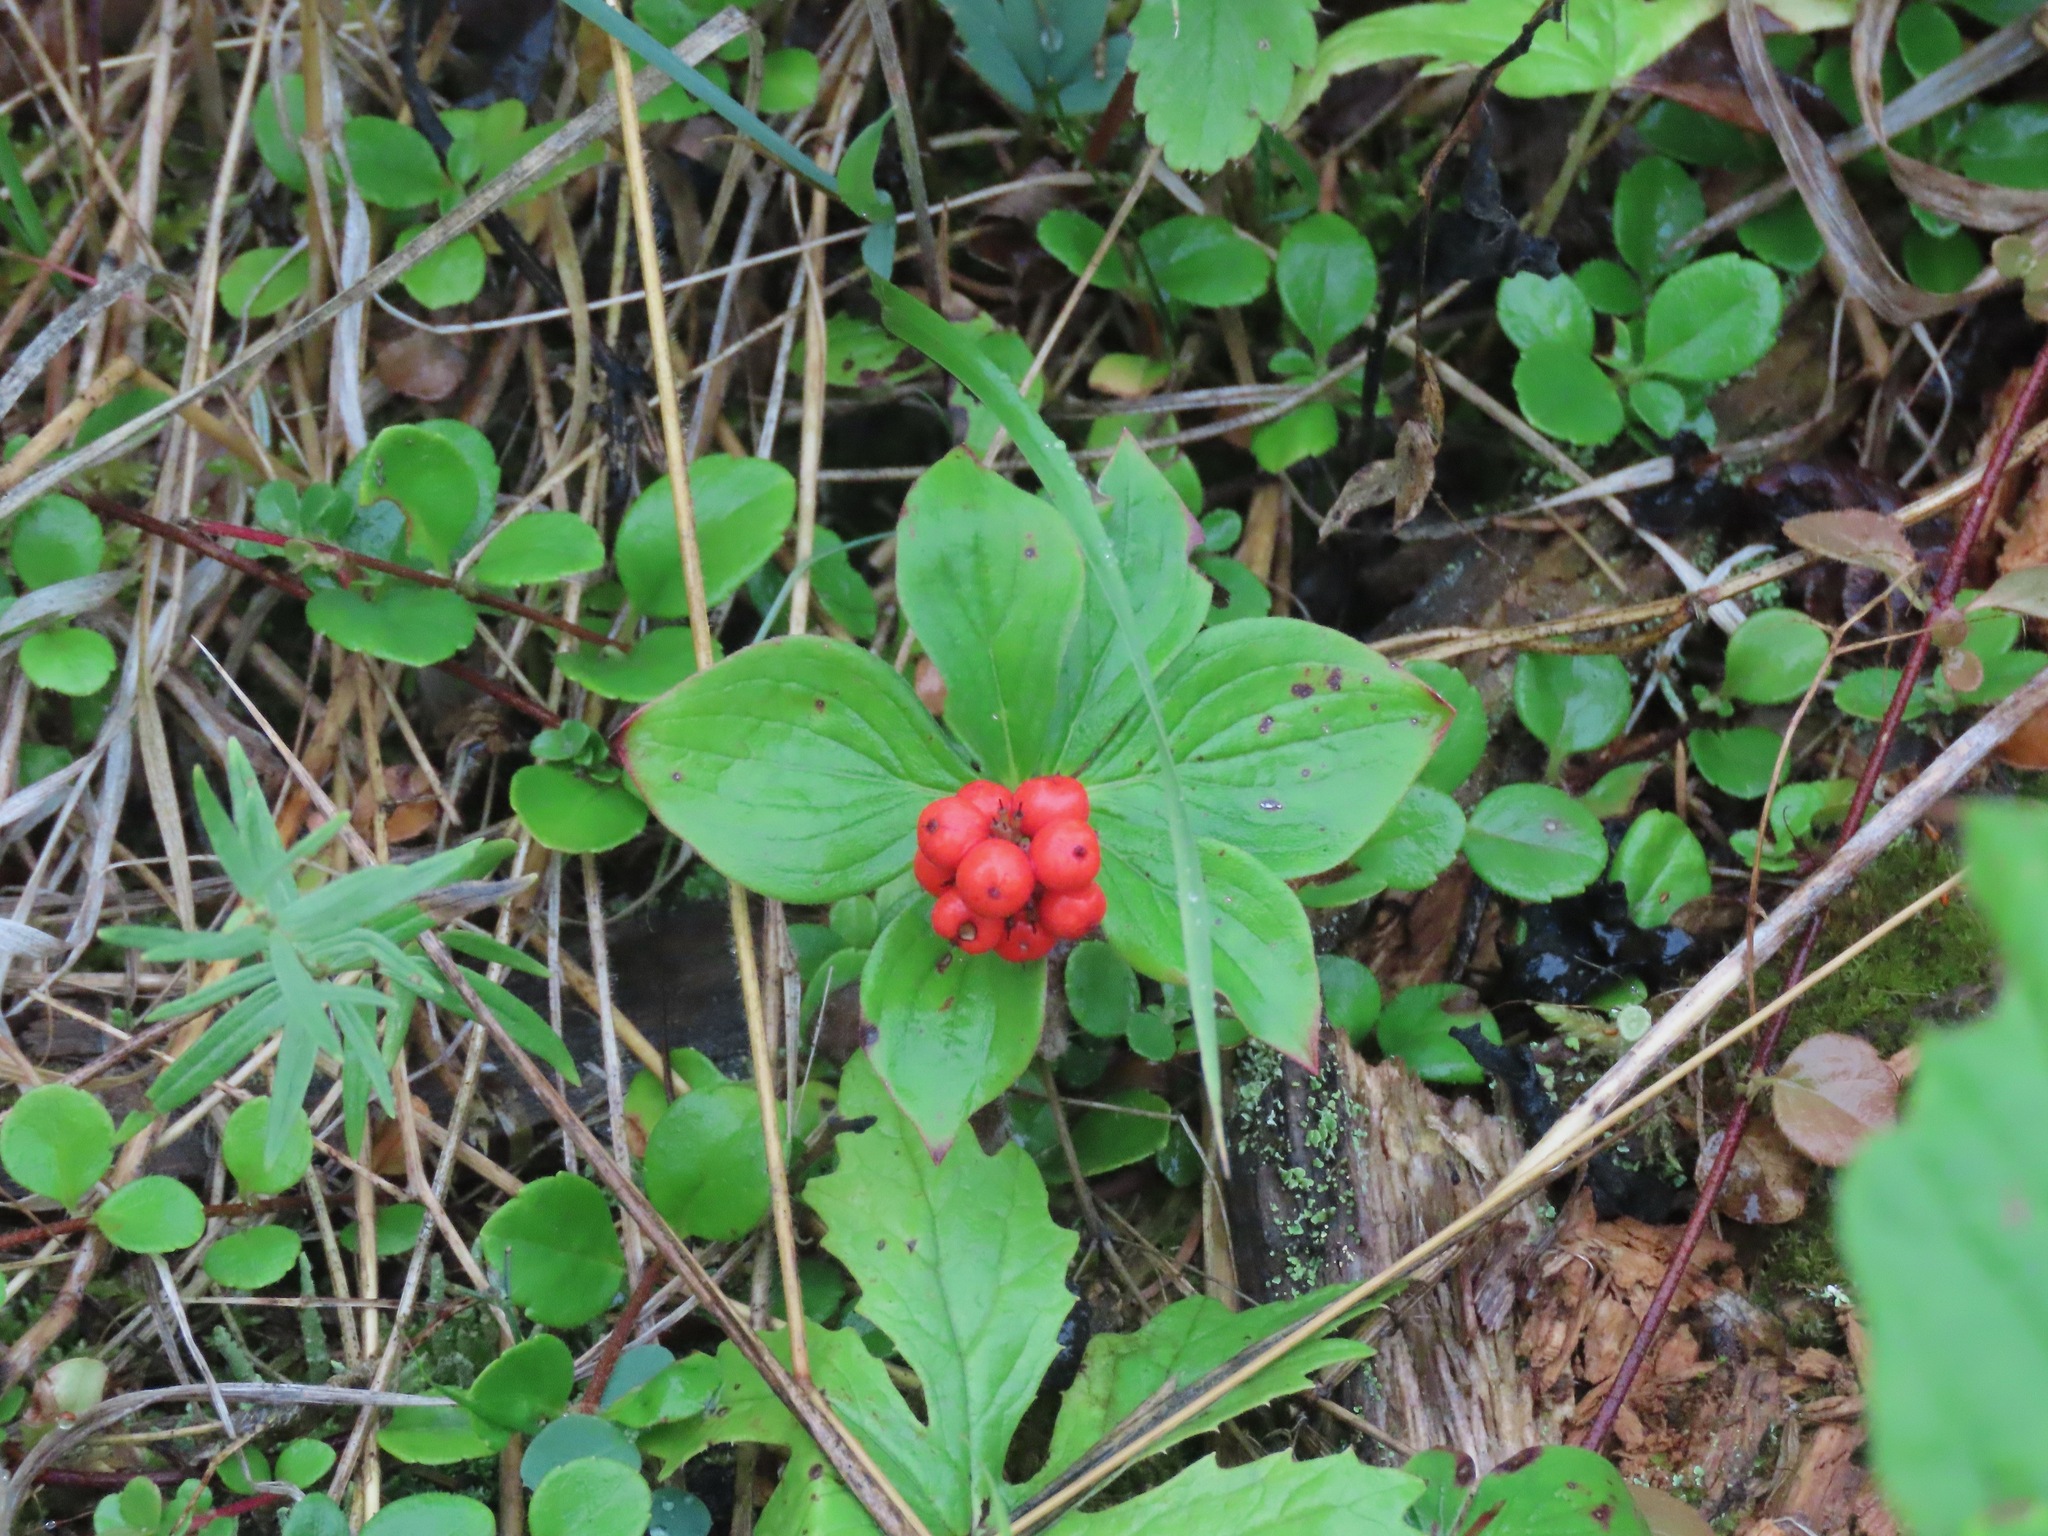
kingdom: Plantae
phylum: Tracheophyta
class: Magnoliopsida
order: Cornales
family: Cornaceae
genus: Cornus
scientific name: Cornus canadensis
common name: Creeping dogwood
